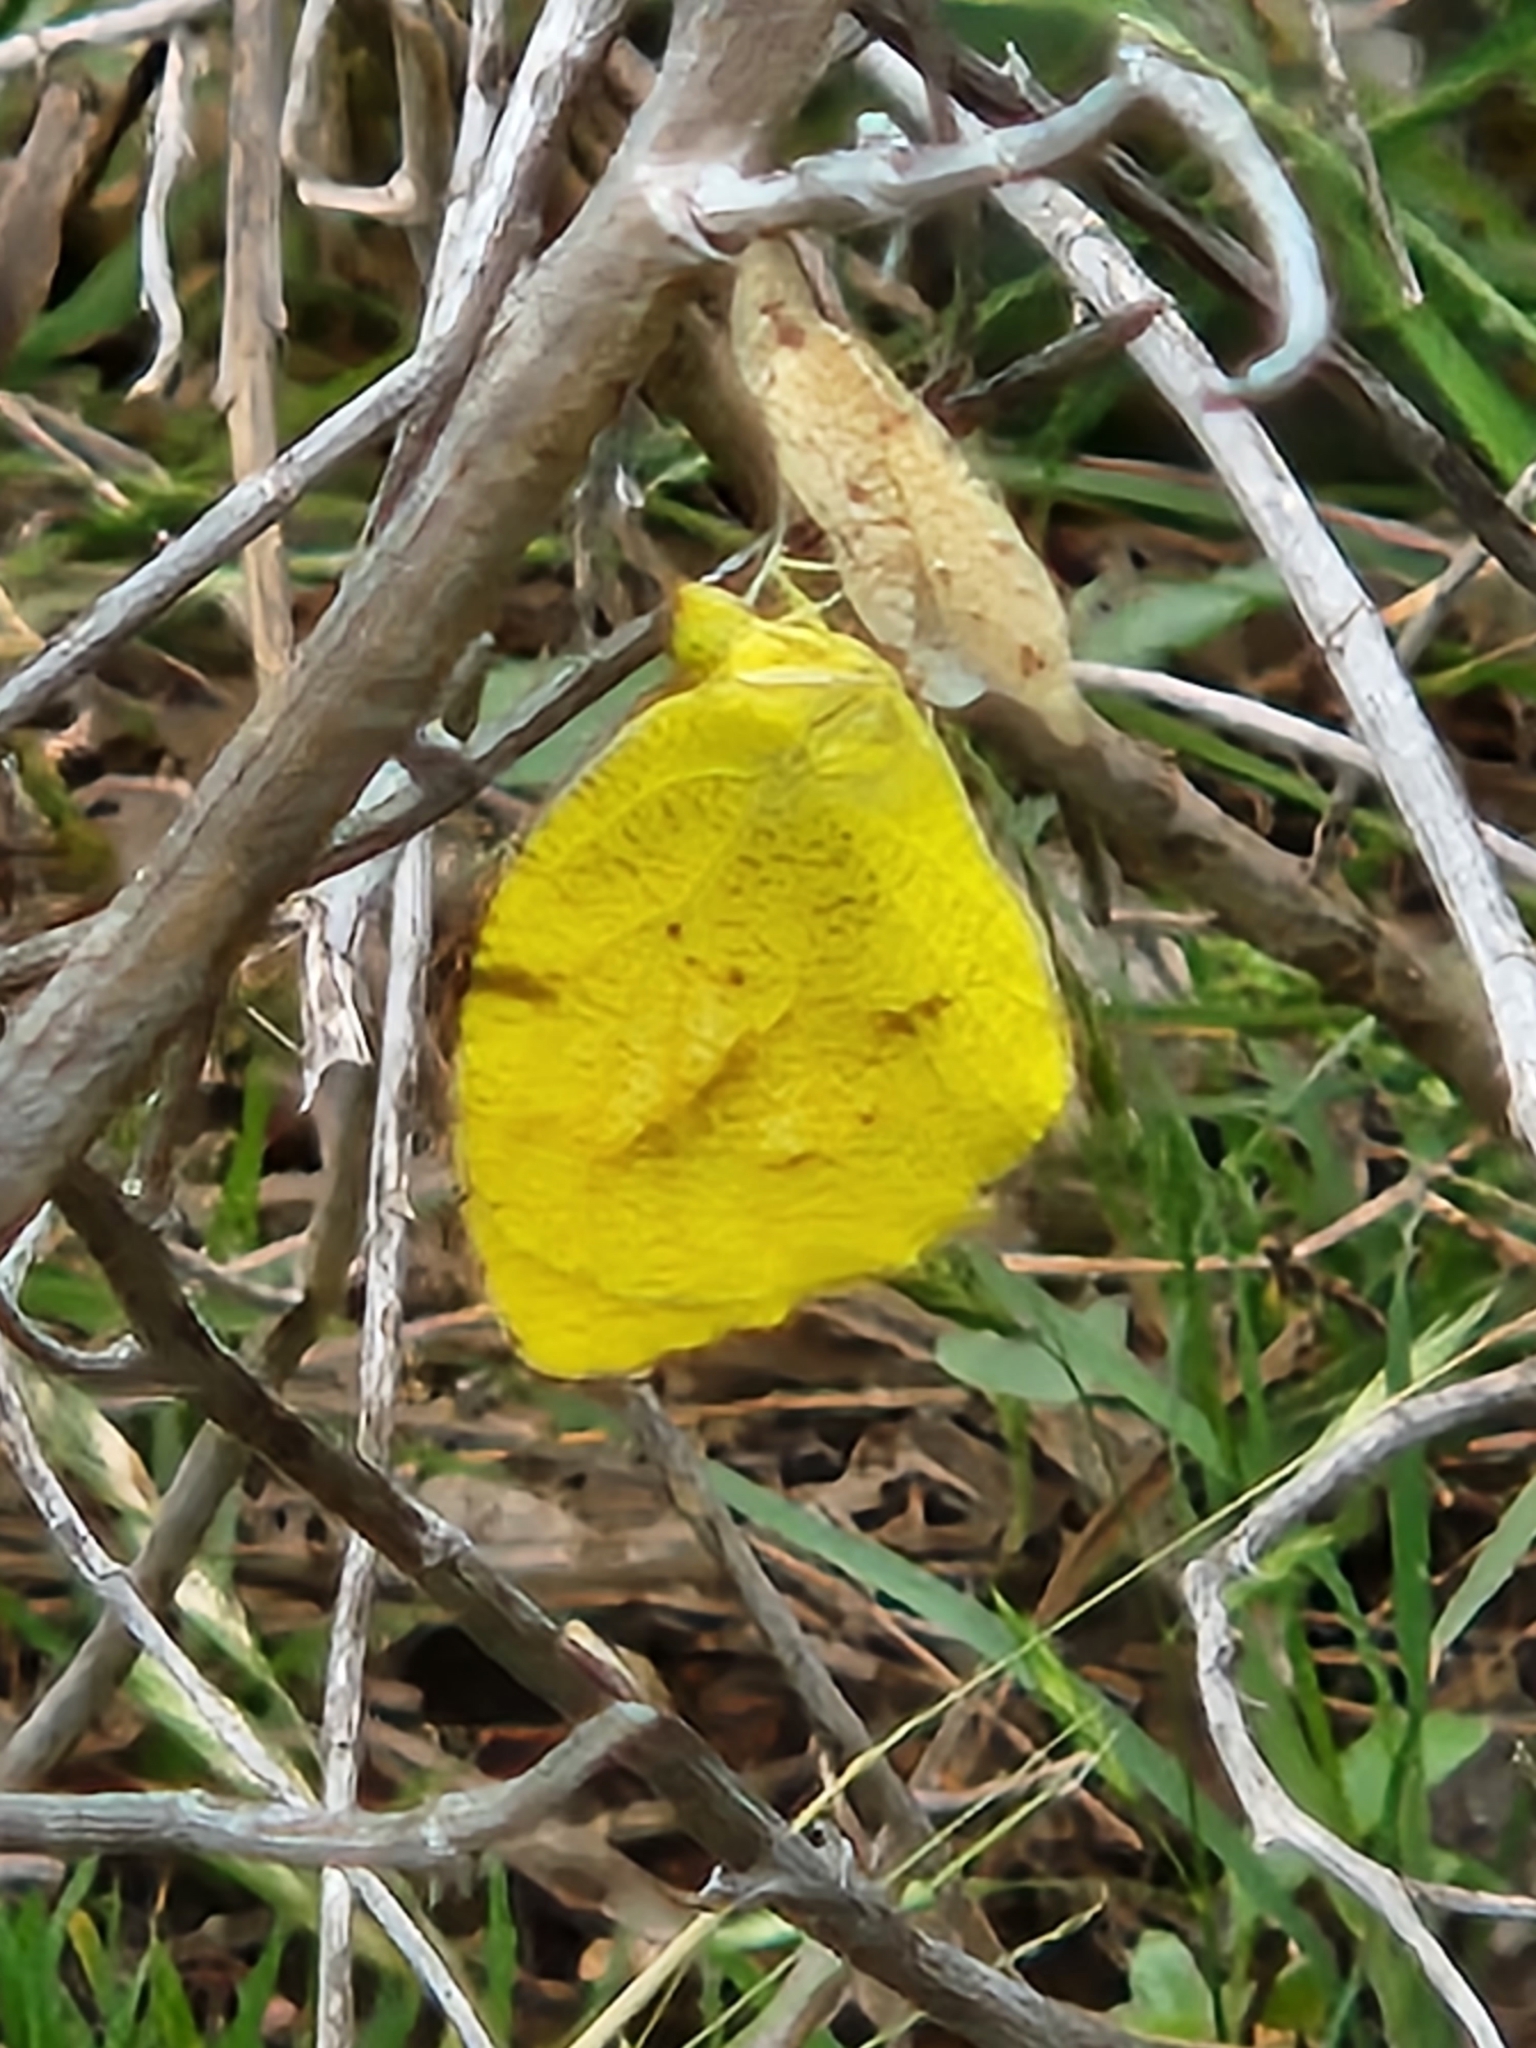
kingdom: Animalia
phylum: Arthropoda
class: Insecta
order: Lepidoptera
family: Pieridae
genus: Abaeis
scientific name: Abaeis nicippe
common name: Sleepy orange
